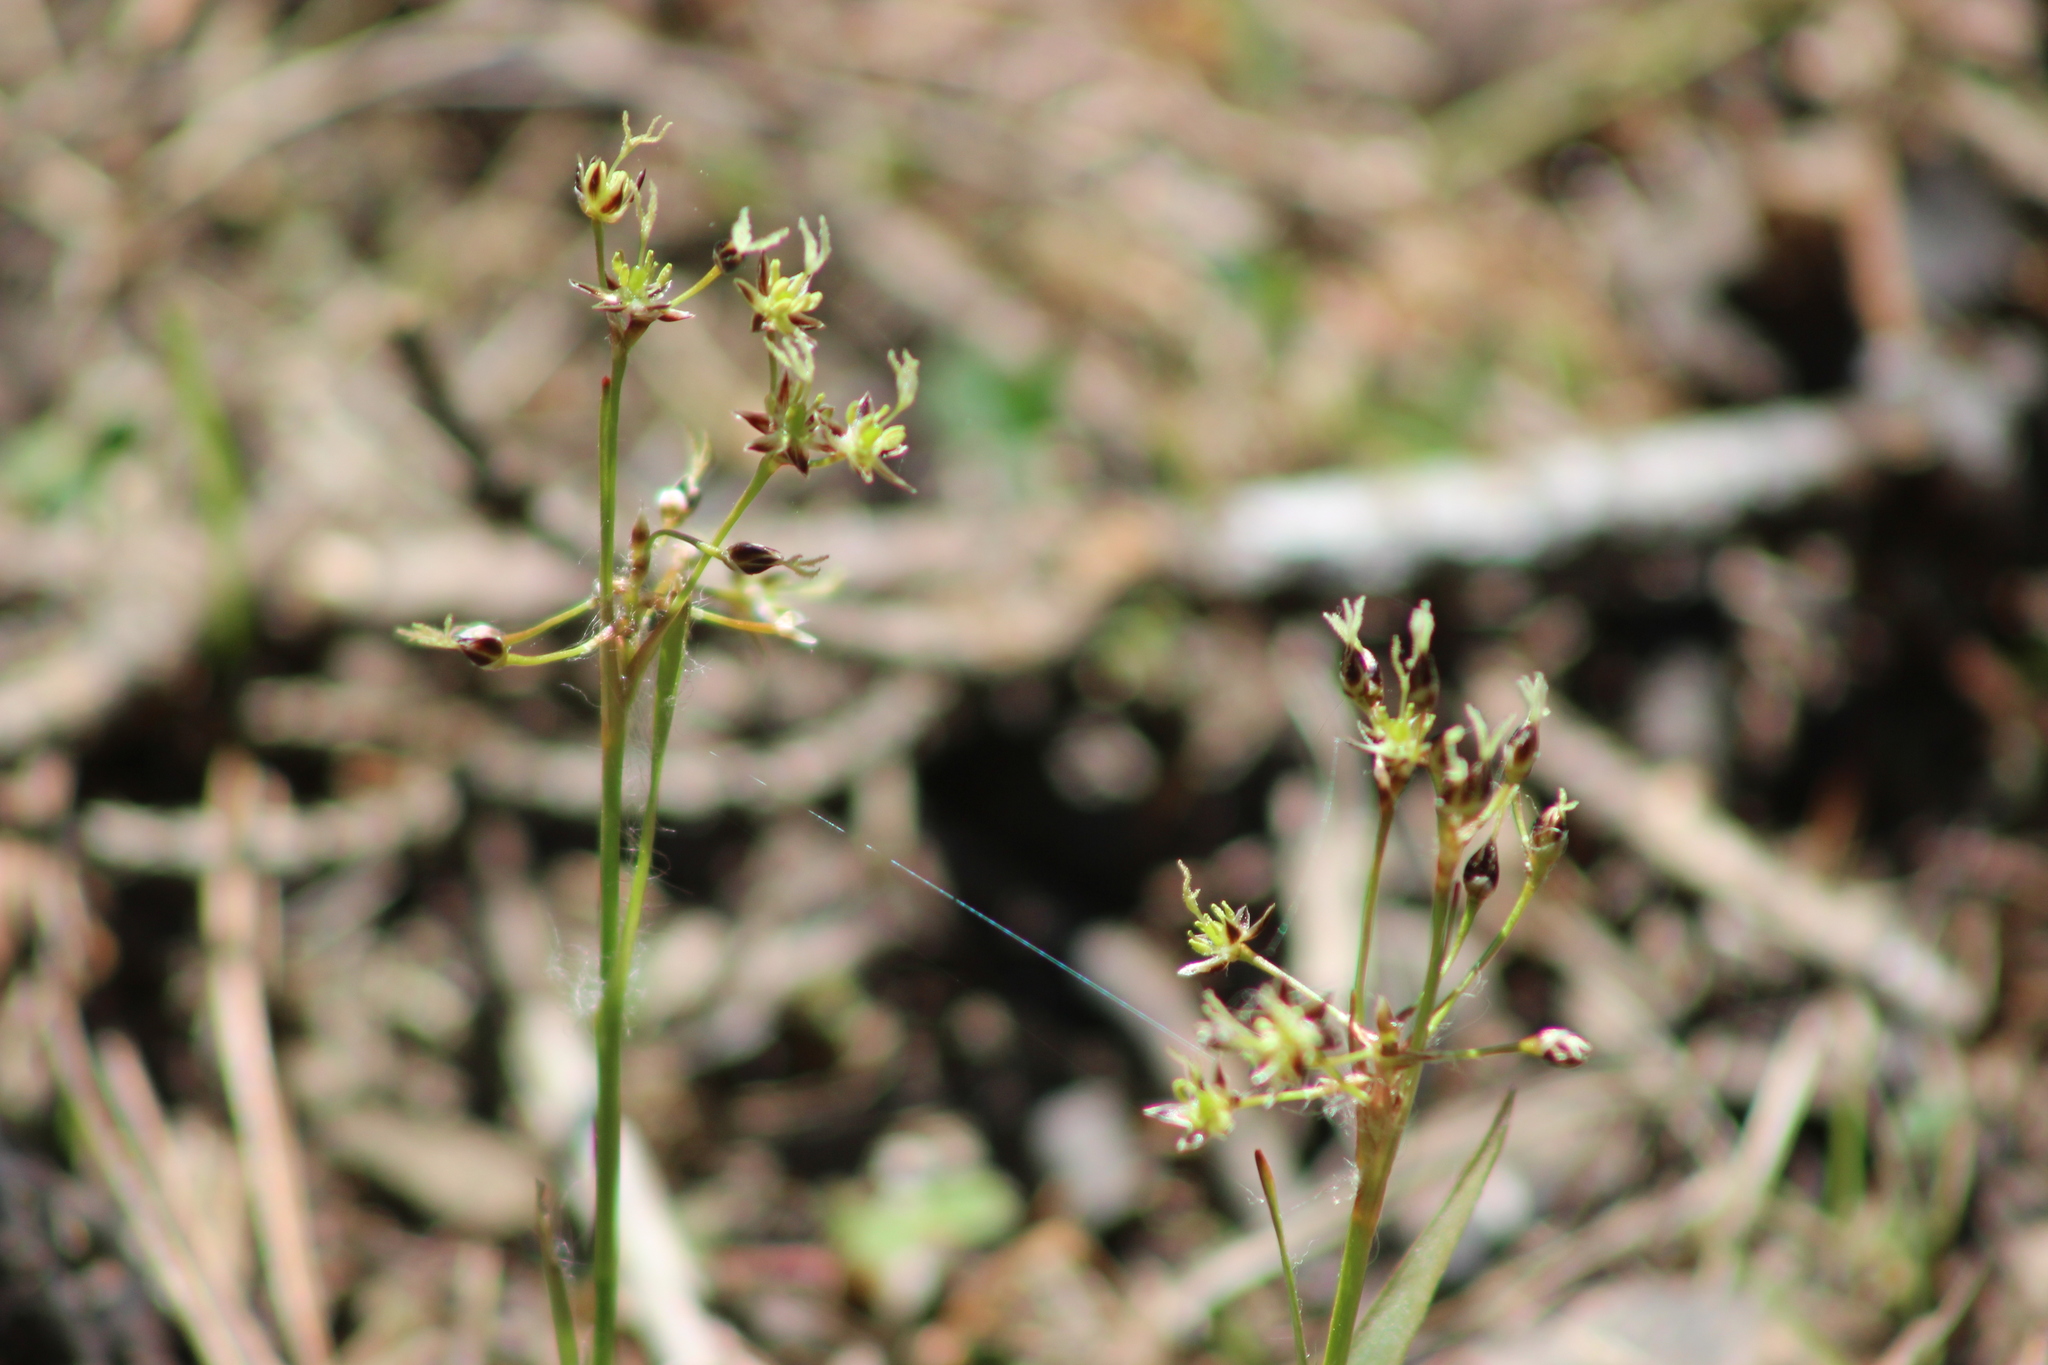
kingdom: Plantae
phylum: Tracheophyta
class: Liliopsida
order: Poales
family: Juncaceae
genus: Luzula
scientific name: Luzula pilosa
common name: Hairy wood-rush
